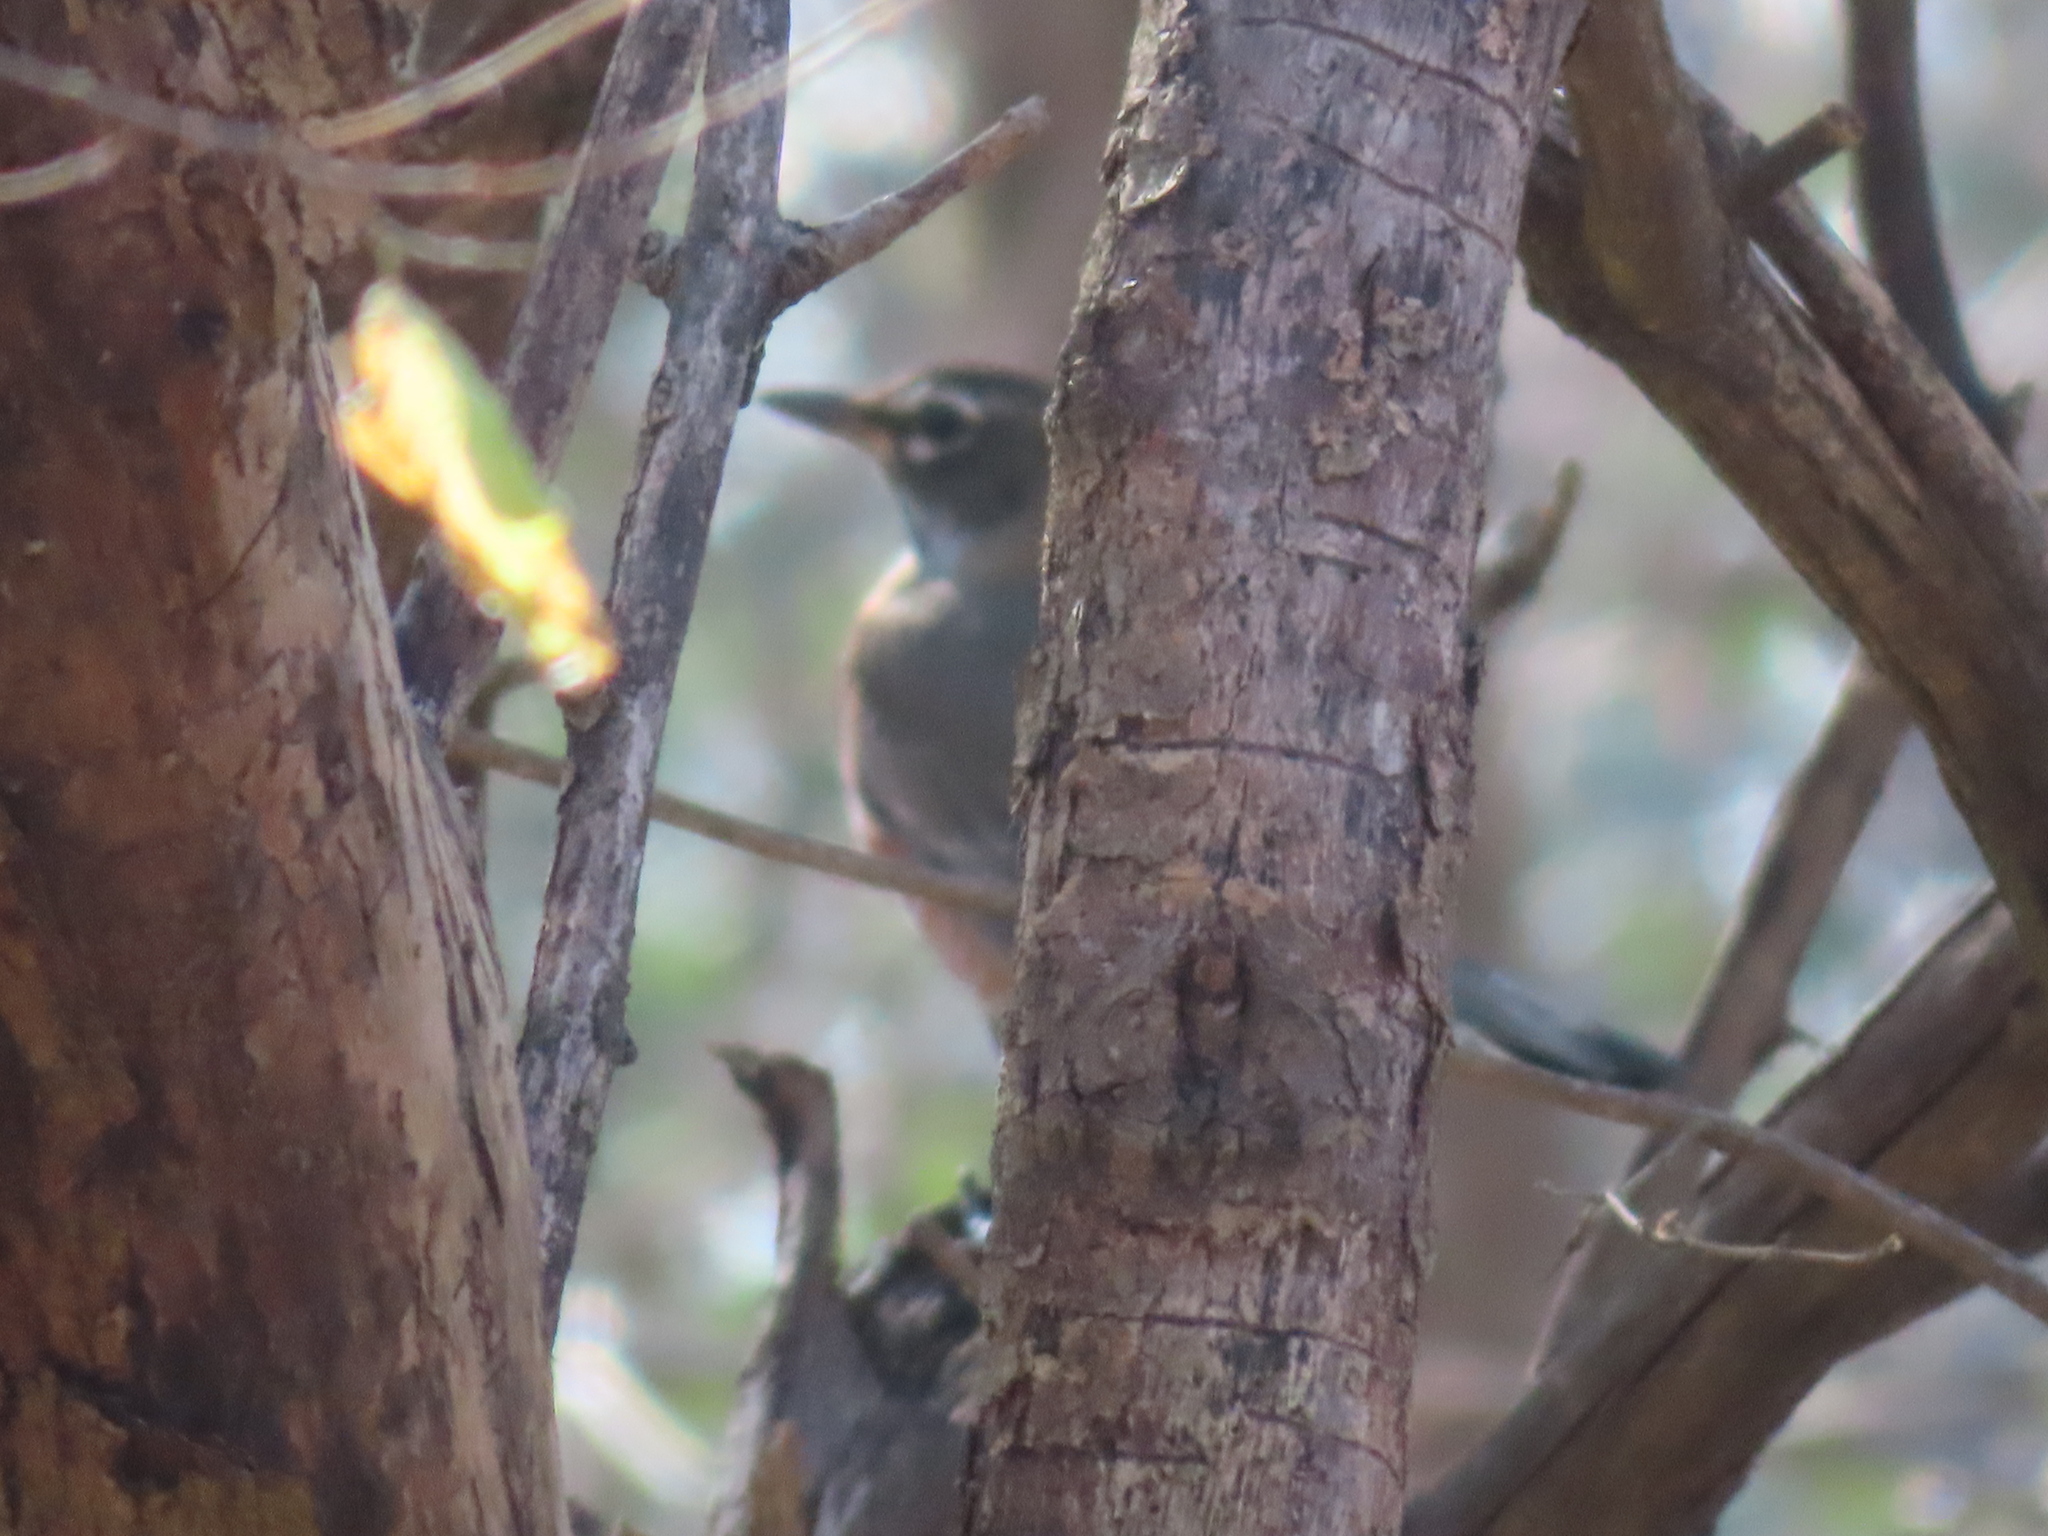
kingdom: Animalia
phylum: Chordata
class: Aves
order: Passeriformes
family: Turdidae
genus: Turdus
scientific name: Turdus migratorius
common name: American robin
